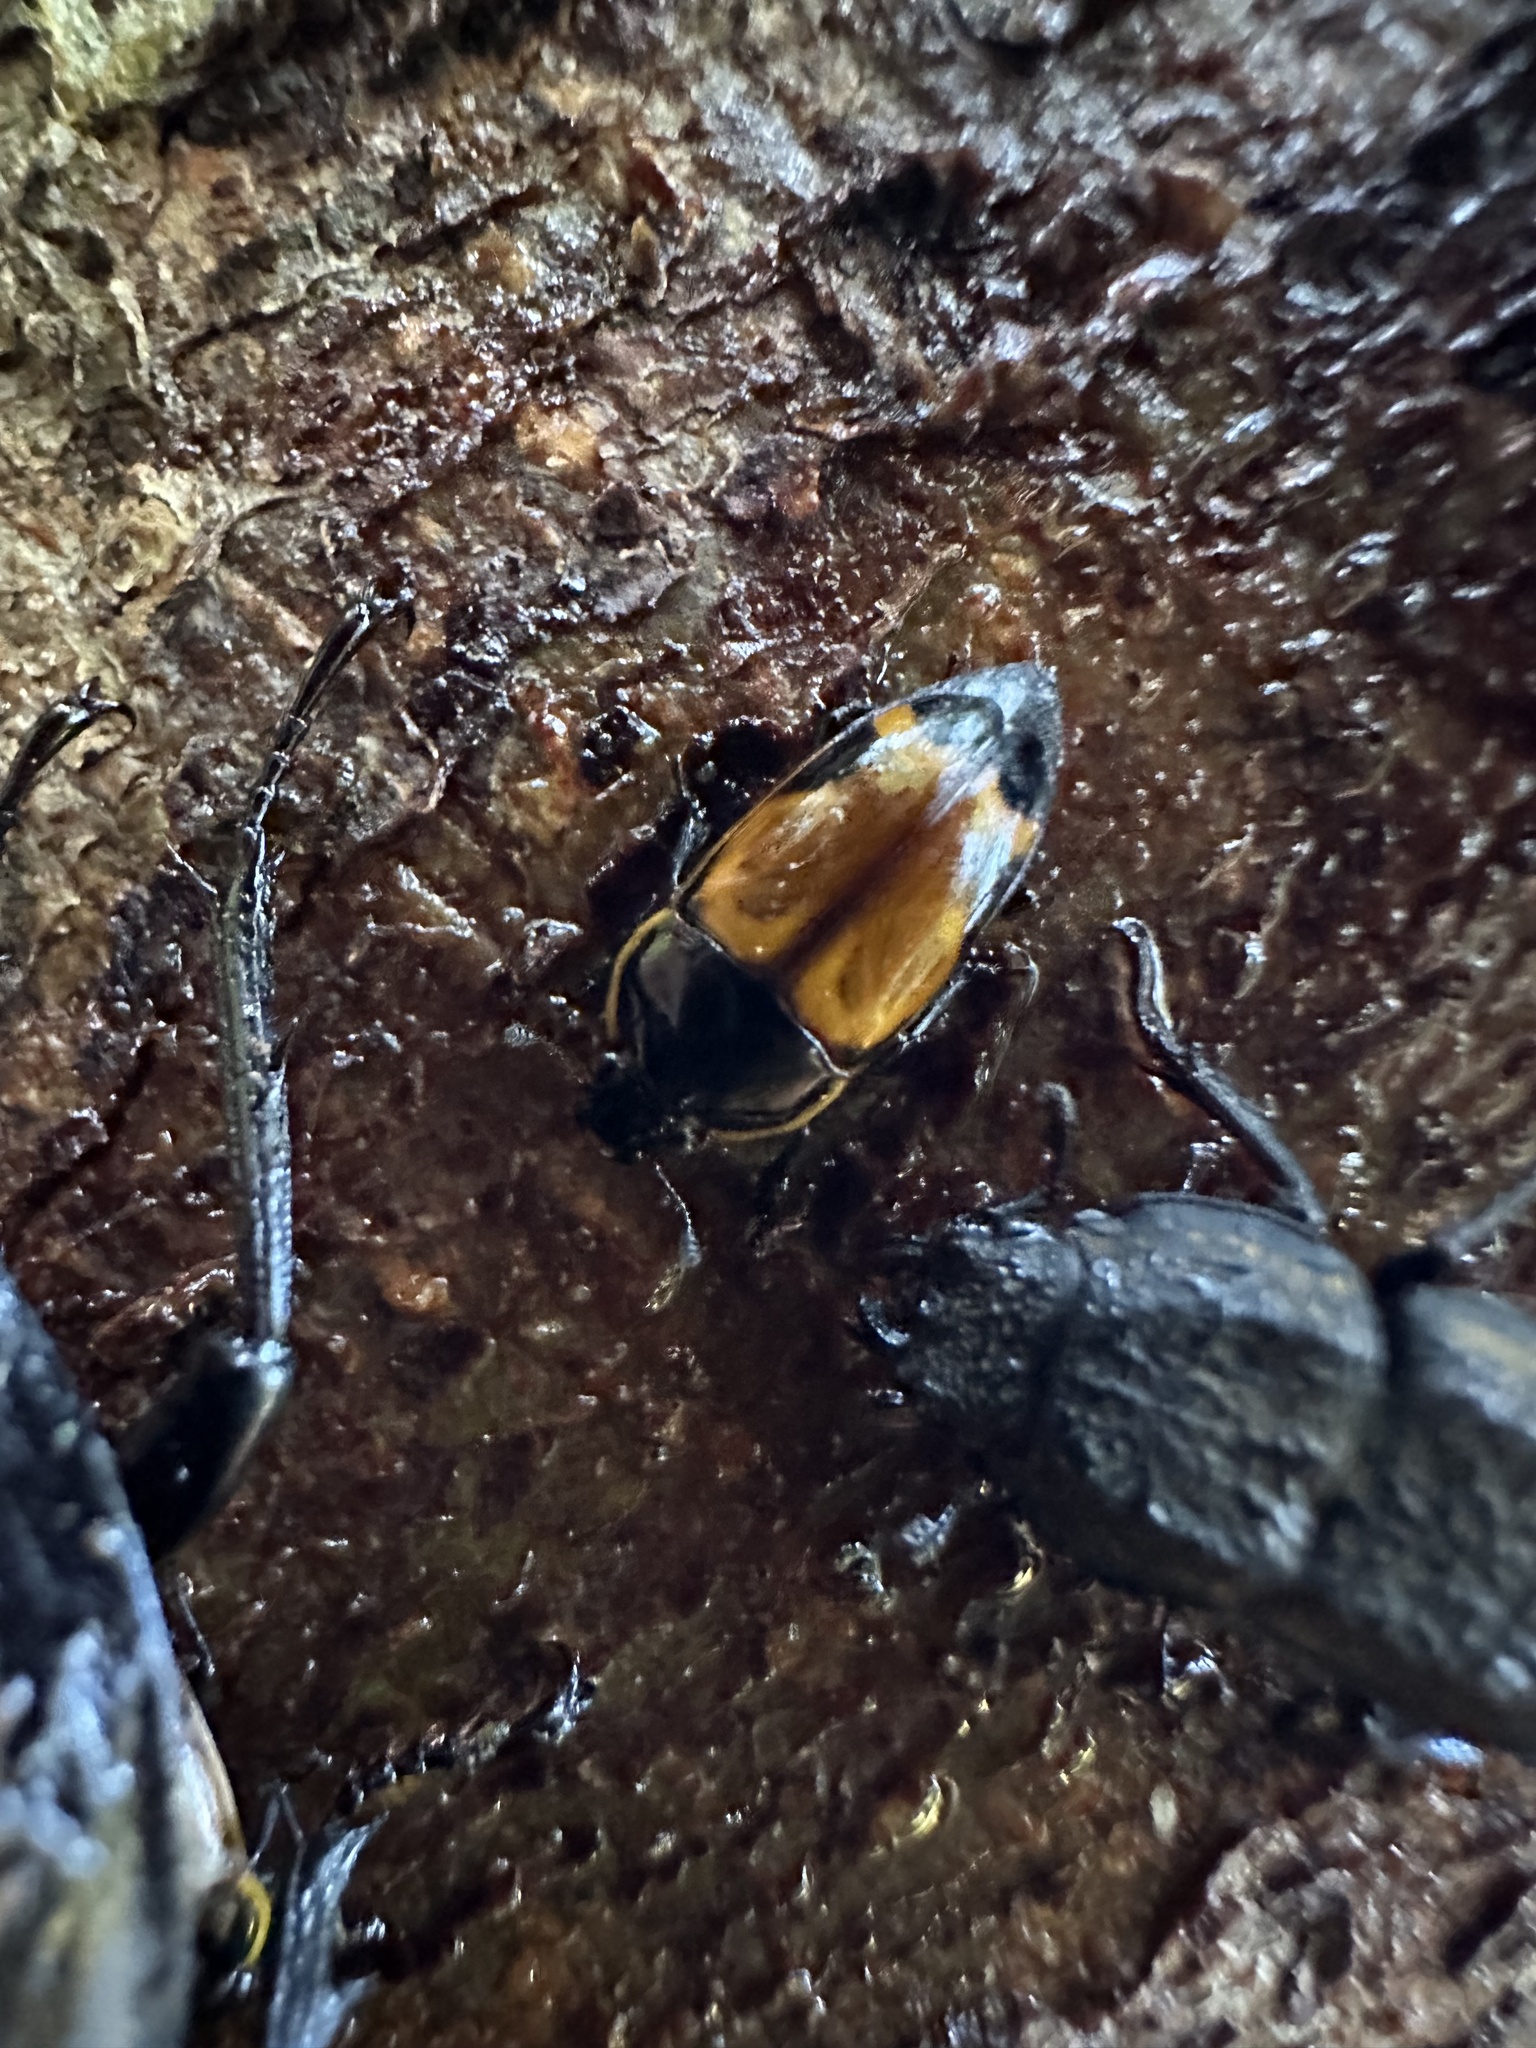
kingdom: Animalia
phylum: Arthropoda
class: Insecta
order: Coleoptera
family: Nitidulidae
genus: Lioschema
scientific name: Lioschema
